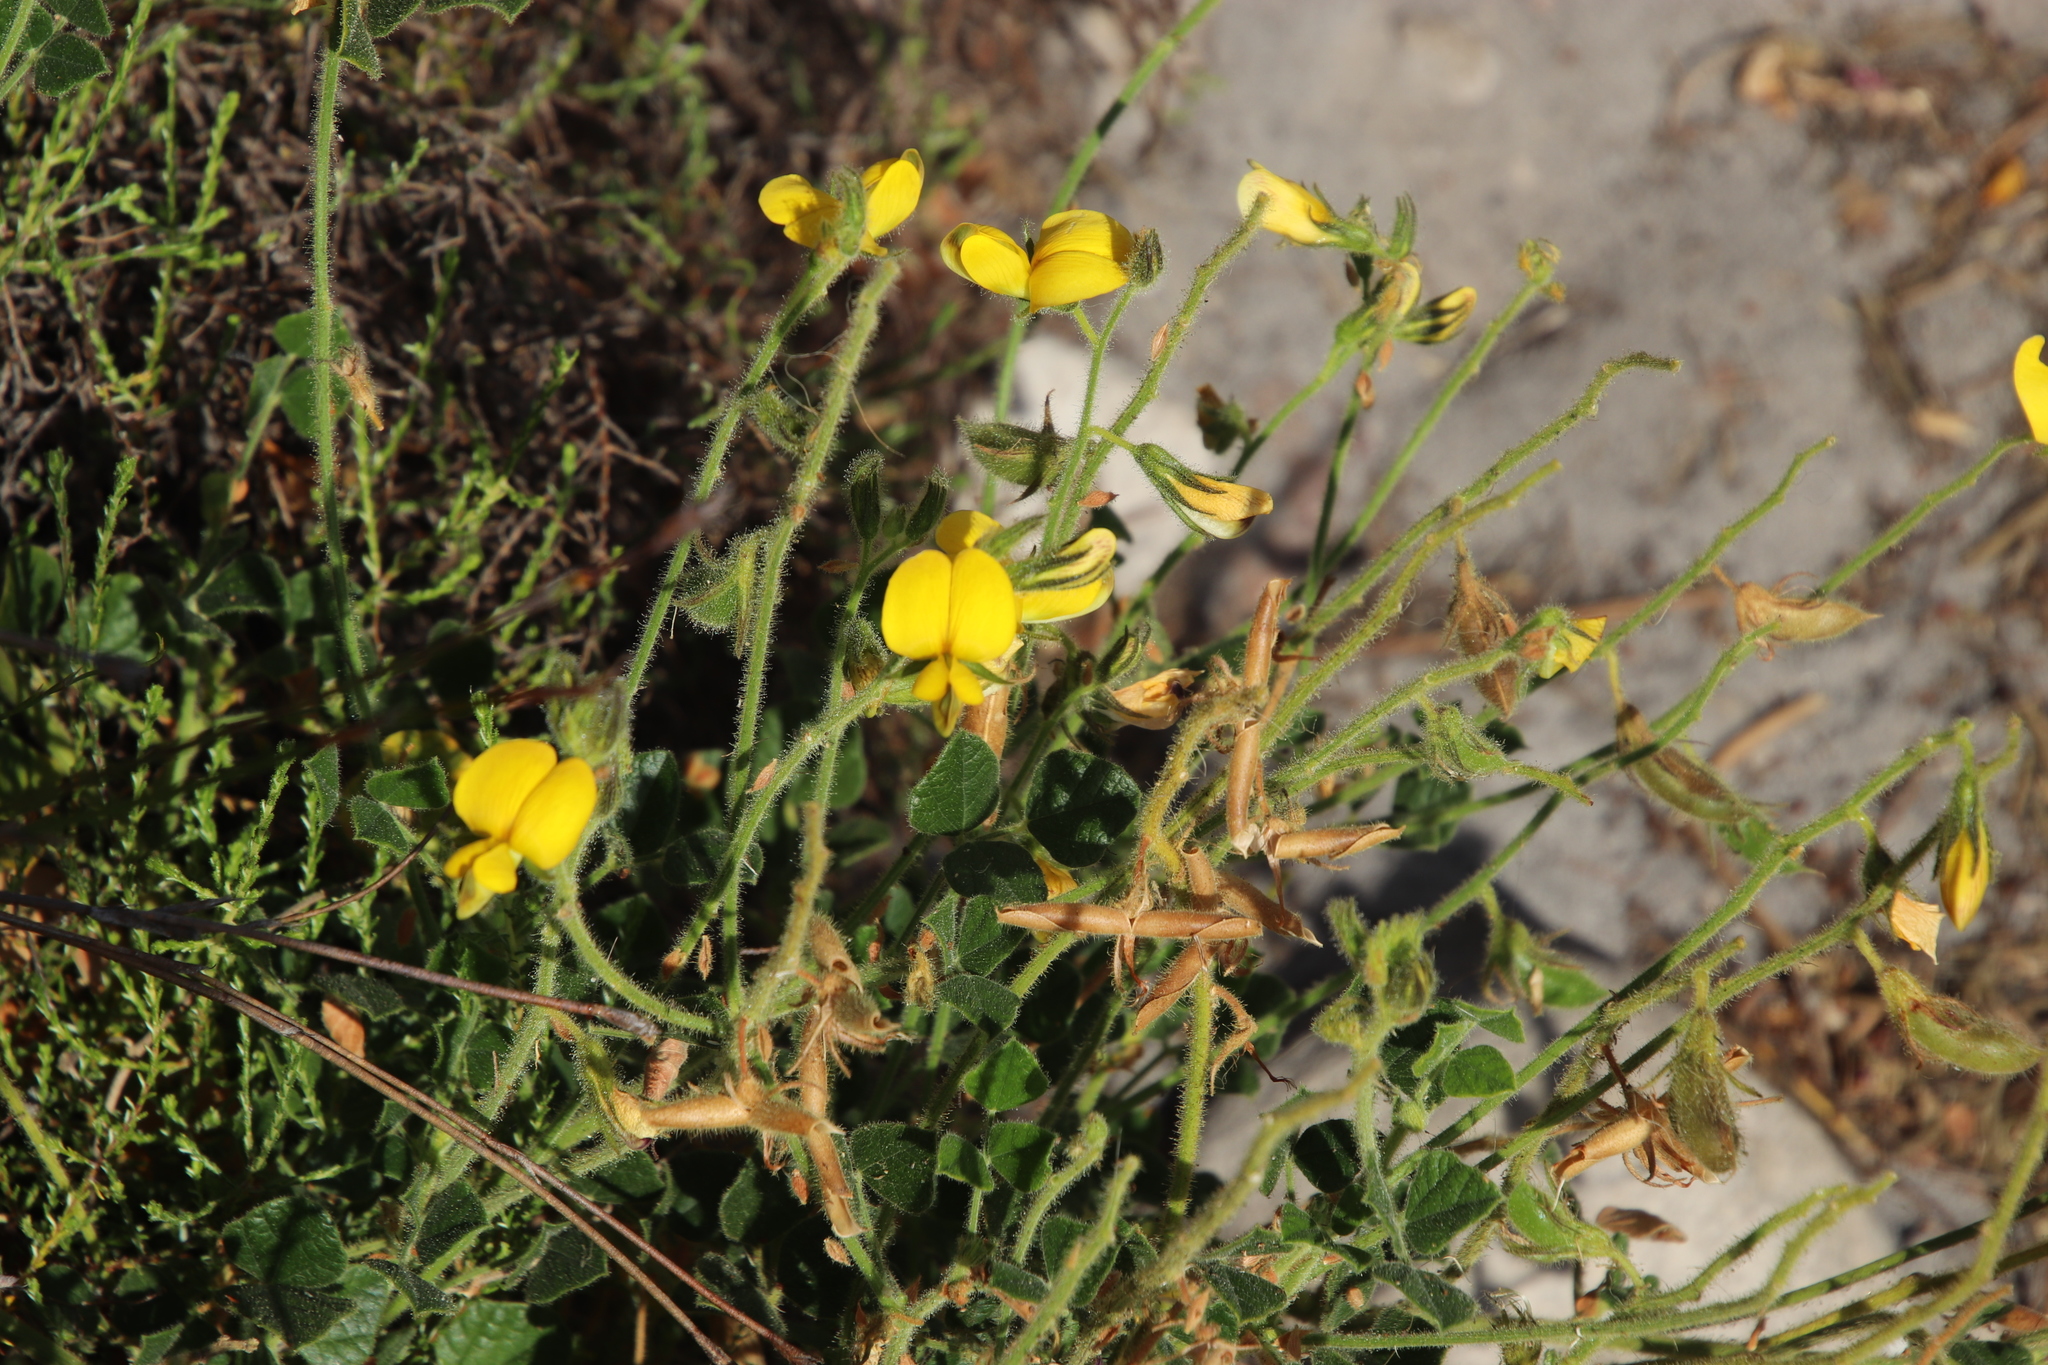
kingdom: Plantae
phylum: Tracheophyta
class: Magnoliopsida
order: Fabales
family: Fabaceae
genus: Bolusafra
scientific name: Bolusafra bituminosa
